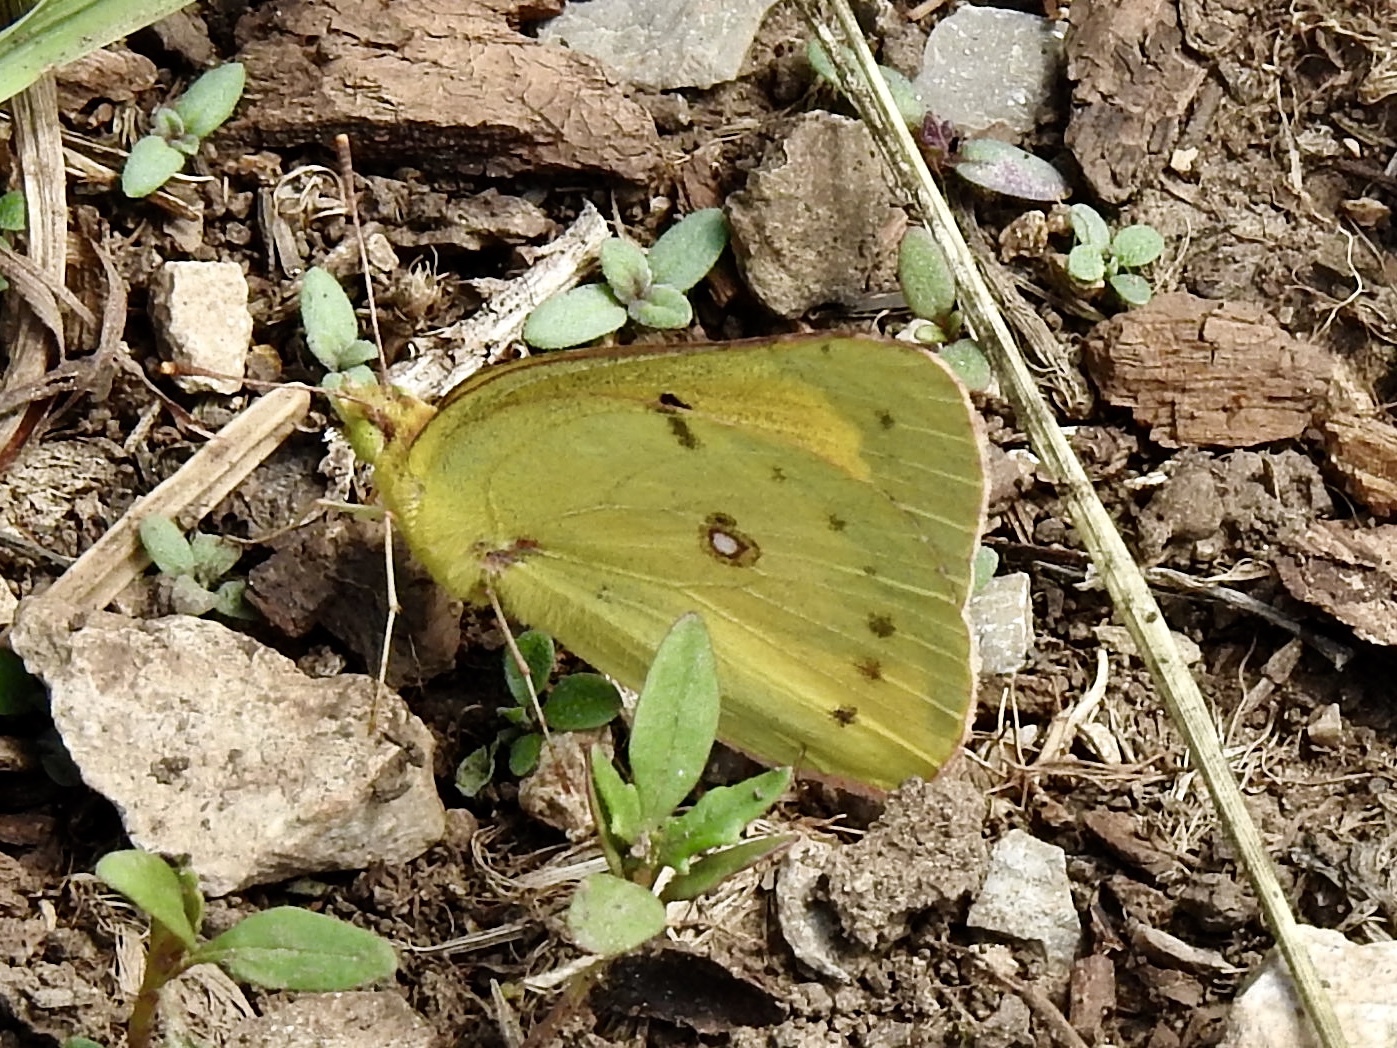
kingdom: Animalia
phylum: Arthropoda
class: Insecta
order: Lepidoptera
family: Pieridae
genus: Colias
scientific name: Colias eurytheme
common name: Alfalfa butterfly
